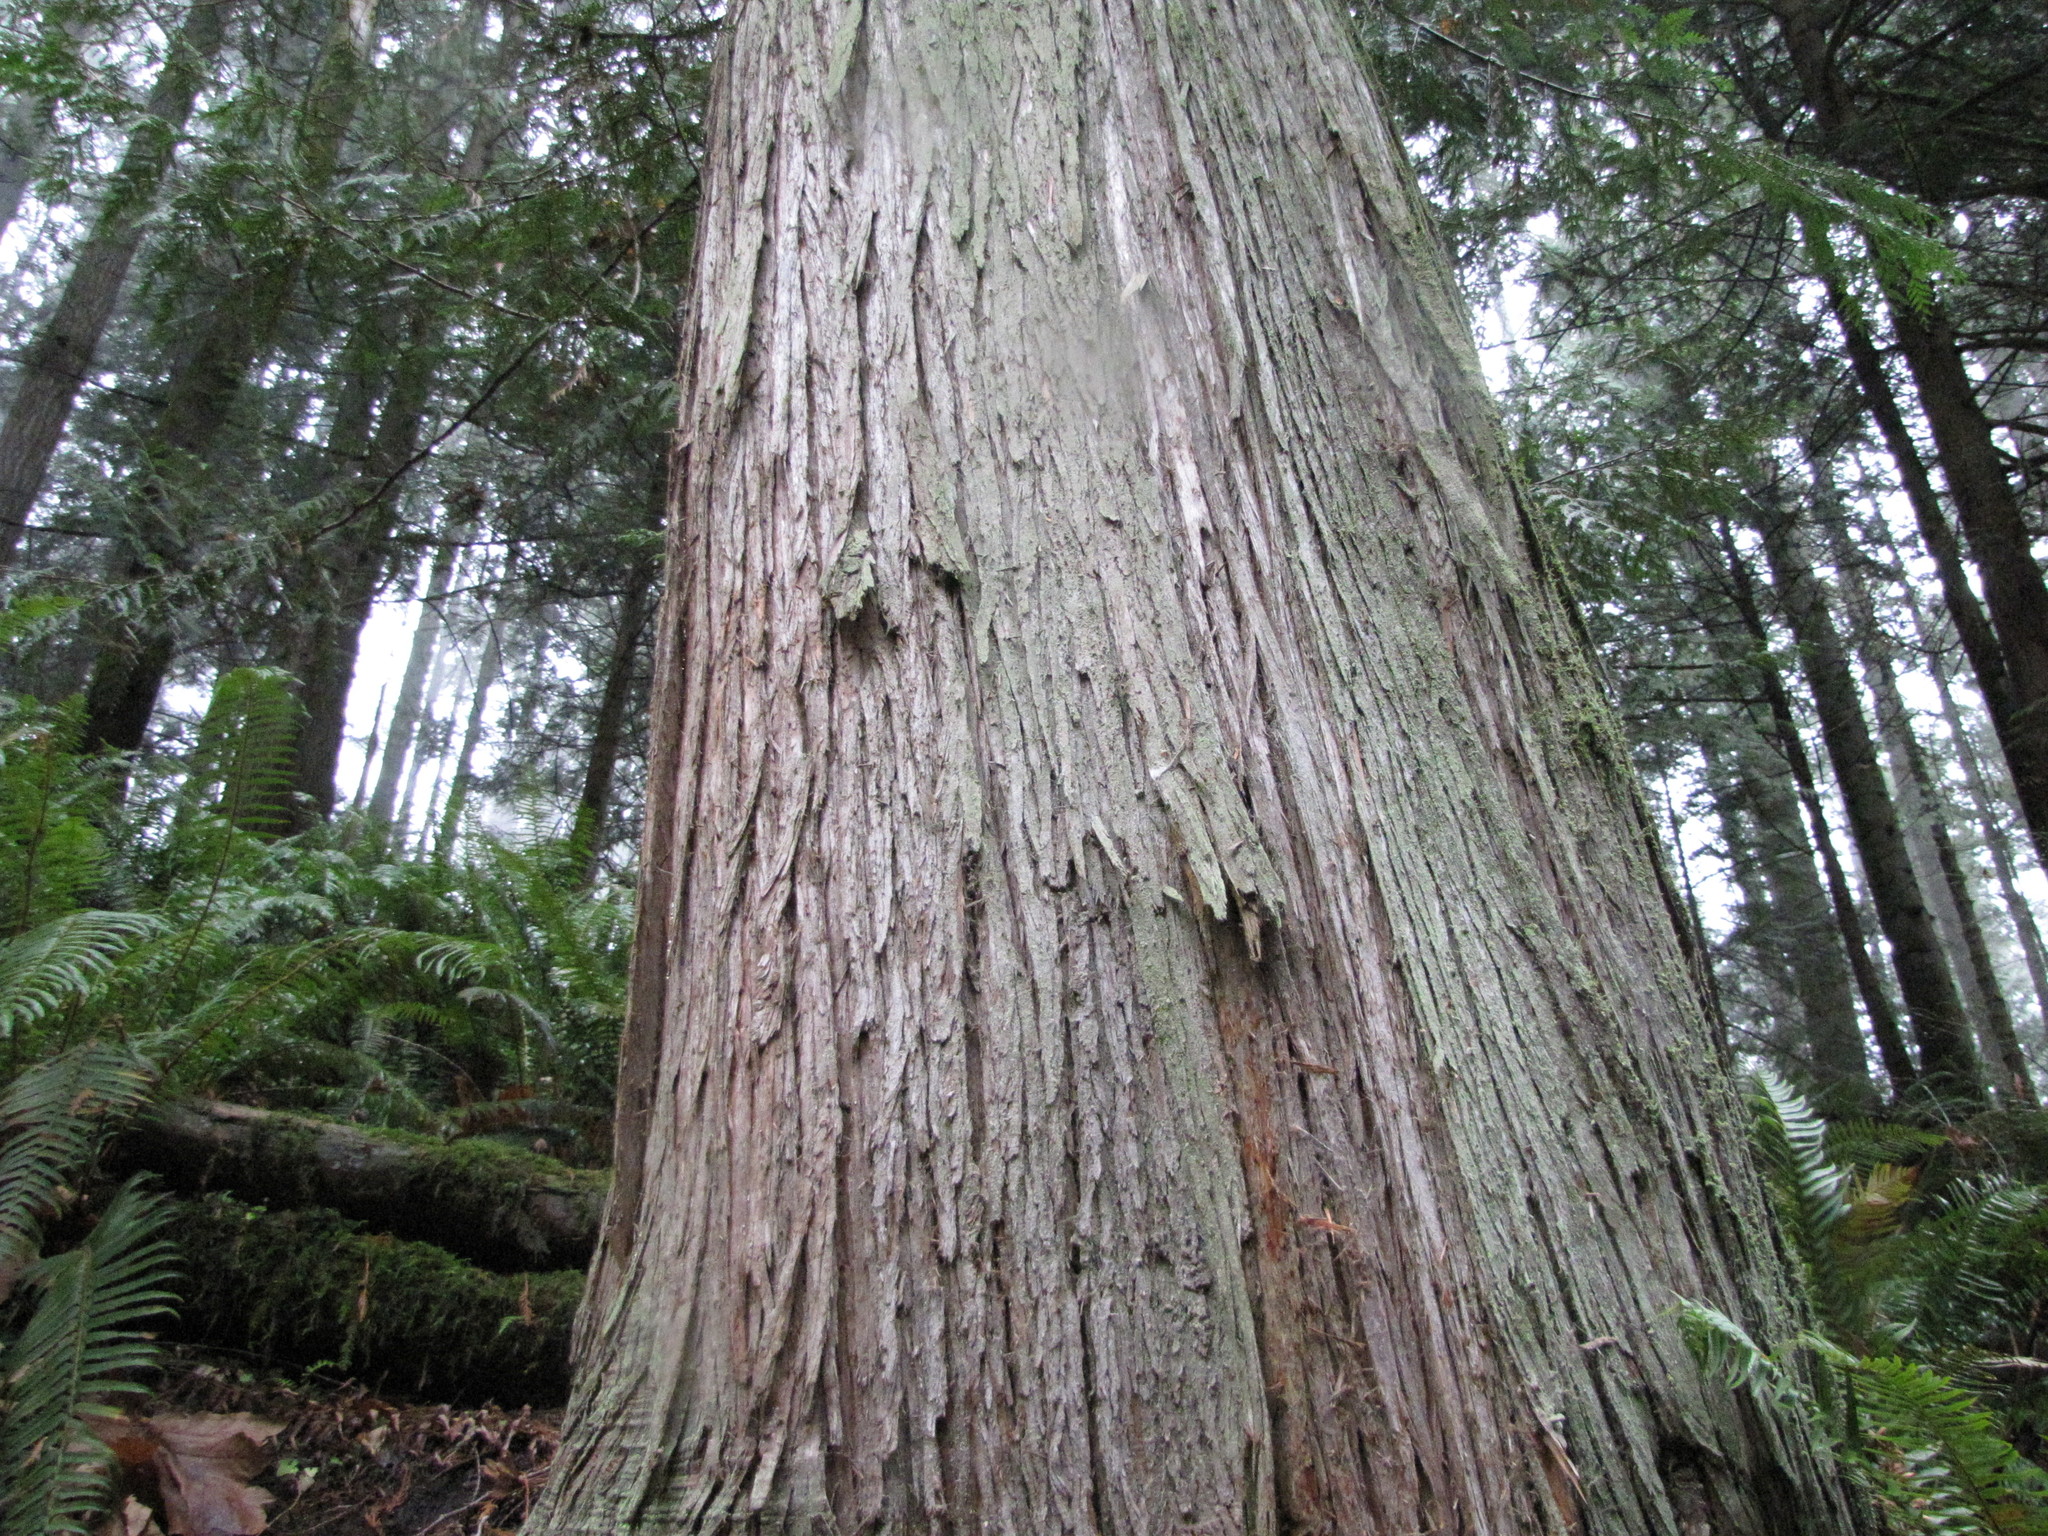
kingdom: Plantae
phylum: Tracheophyta
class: Pinopsida
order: Pinales
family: Cupressaceae
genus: Thuja
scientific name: Thuja plicata
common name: Western red-cedar
